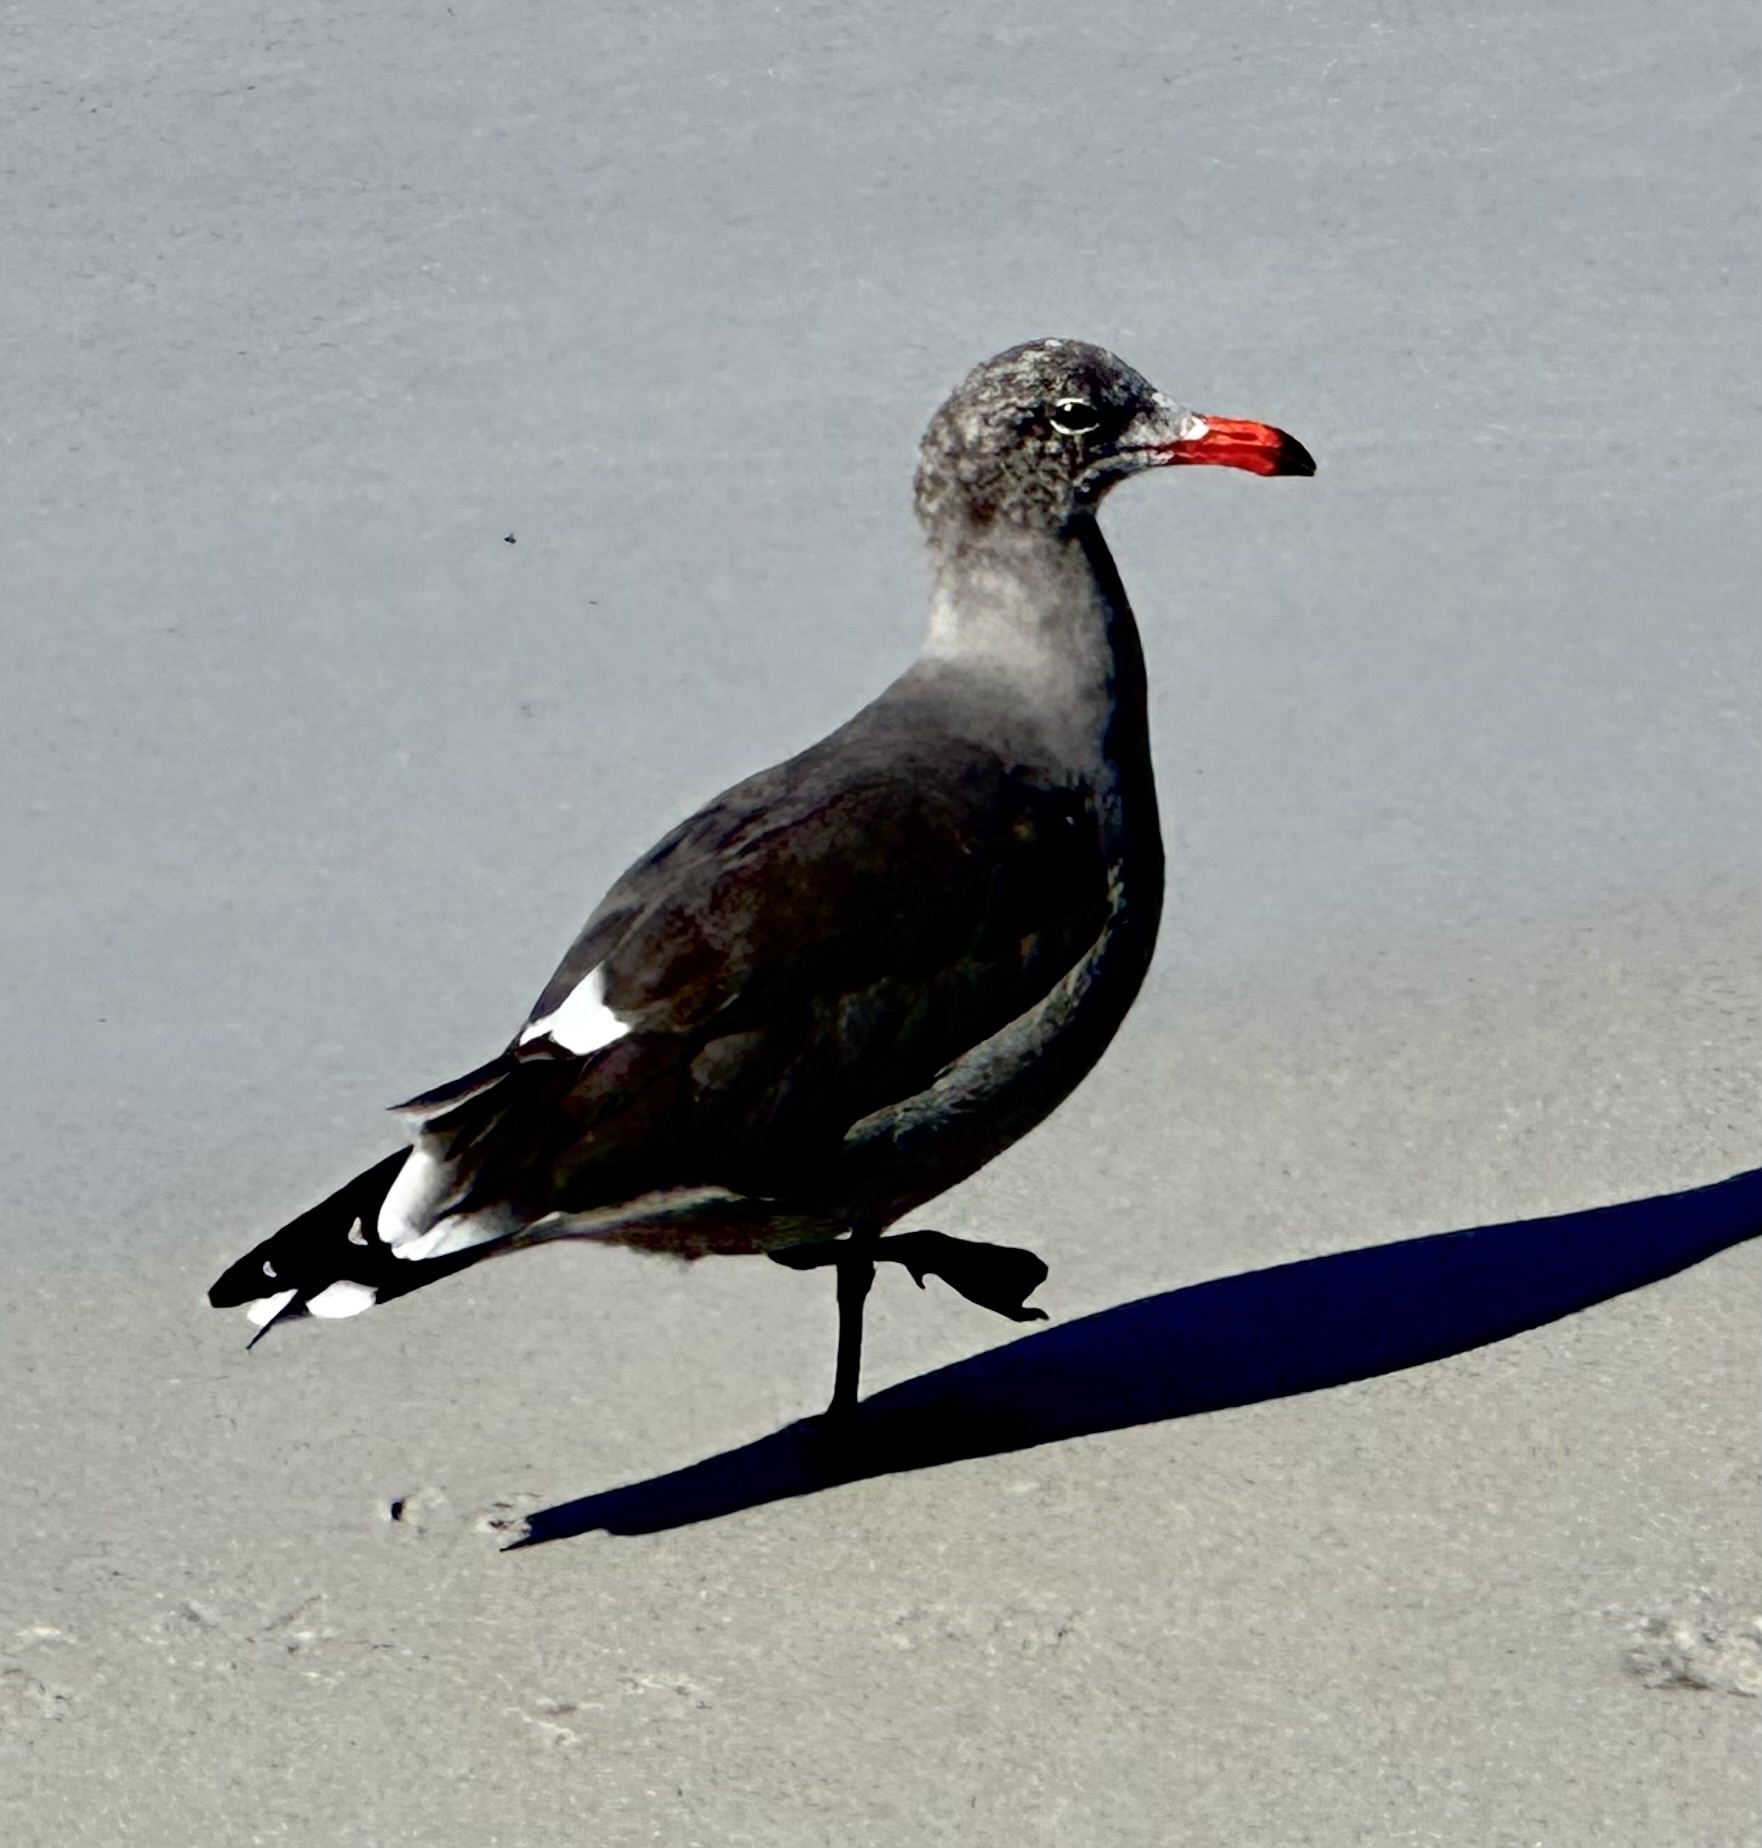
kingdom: Animalia
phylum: Chordata
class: Aves
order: Charadriiformes
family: Laridae
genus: Larus
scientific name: Larus heermanni
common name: Heermann's gull
